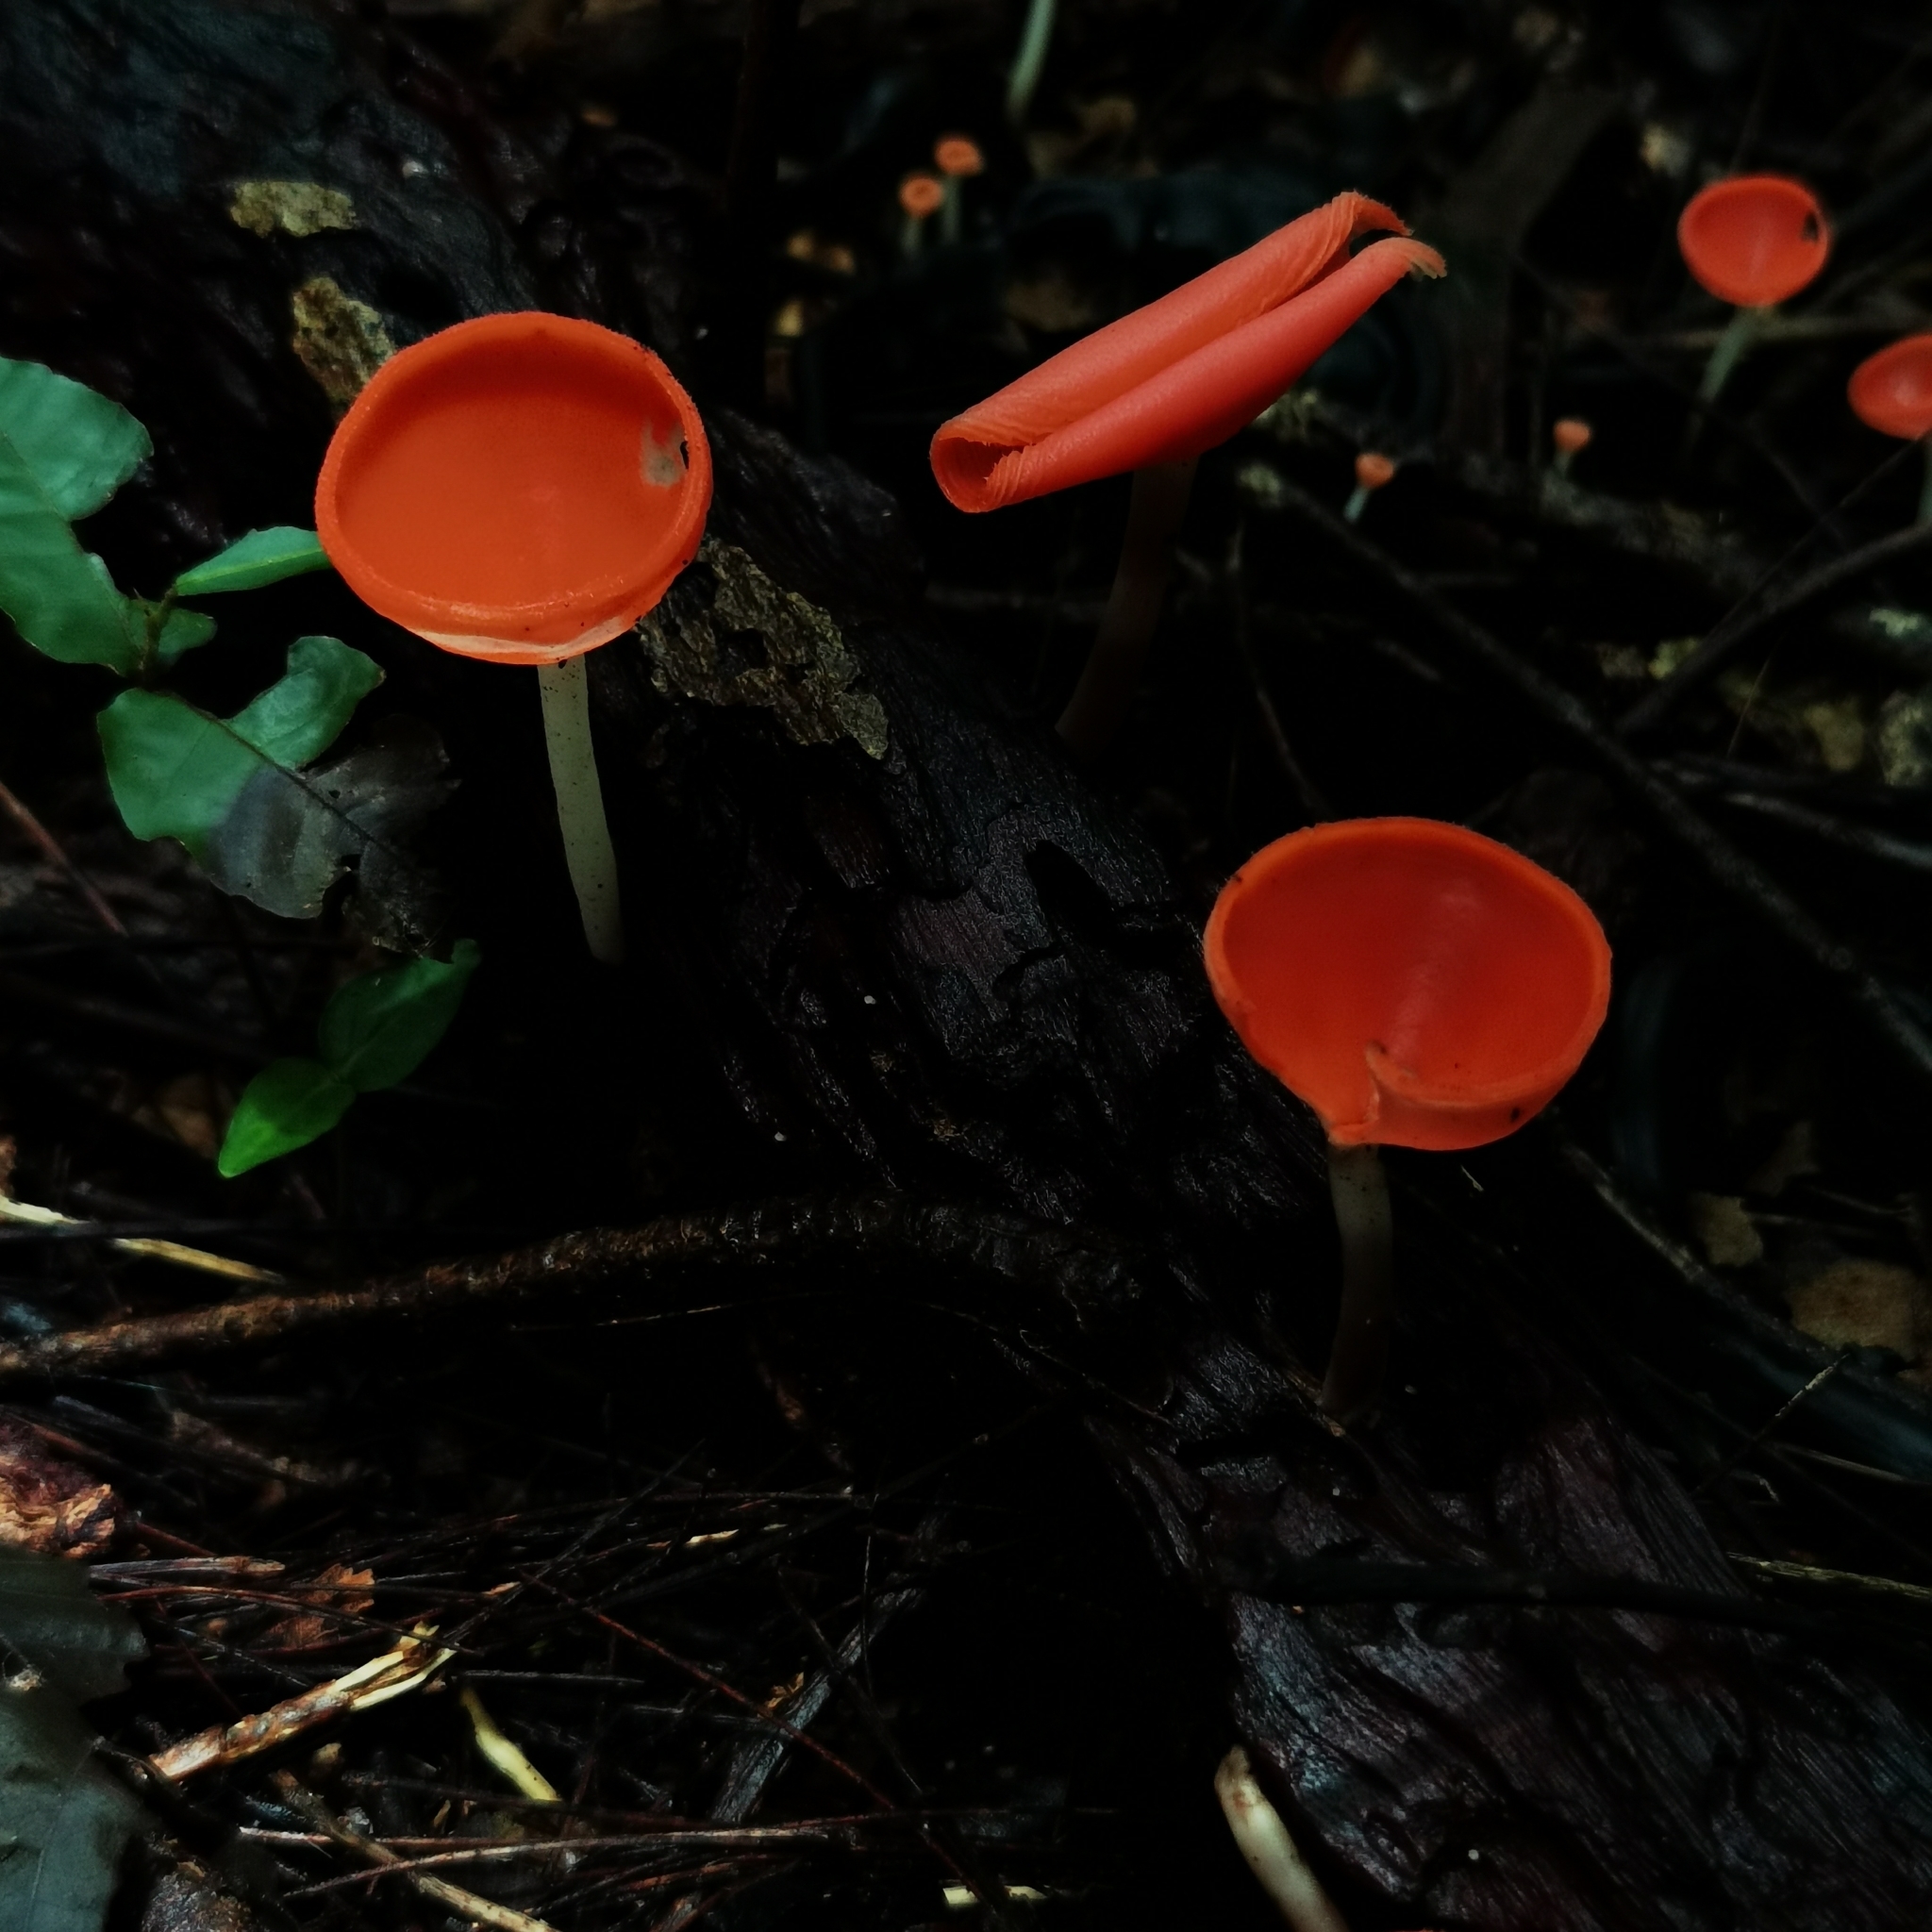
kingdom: Fungi
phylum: Ascomycota
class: Pezizomycetes
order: Pezizales
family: Sarcoscyphaceae
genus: Cookeina
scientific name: Cookeina speciosa
